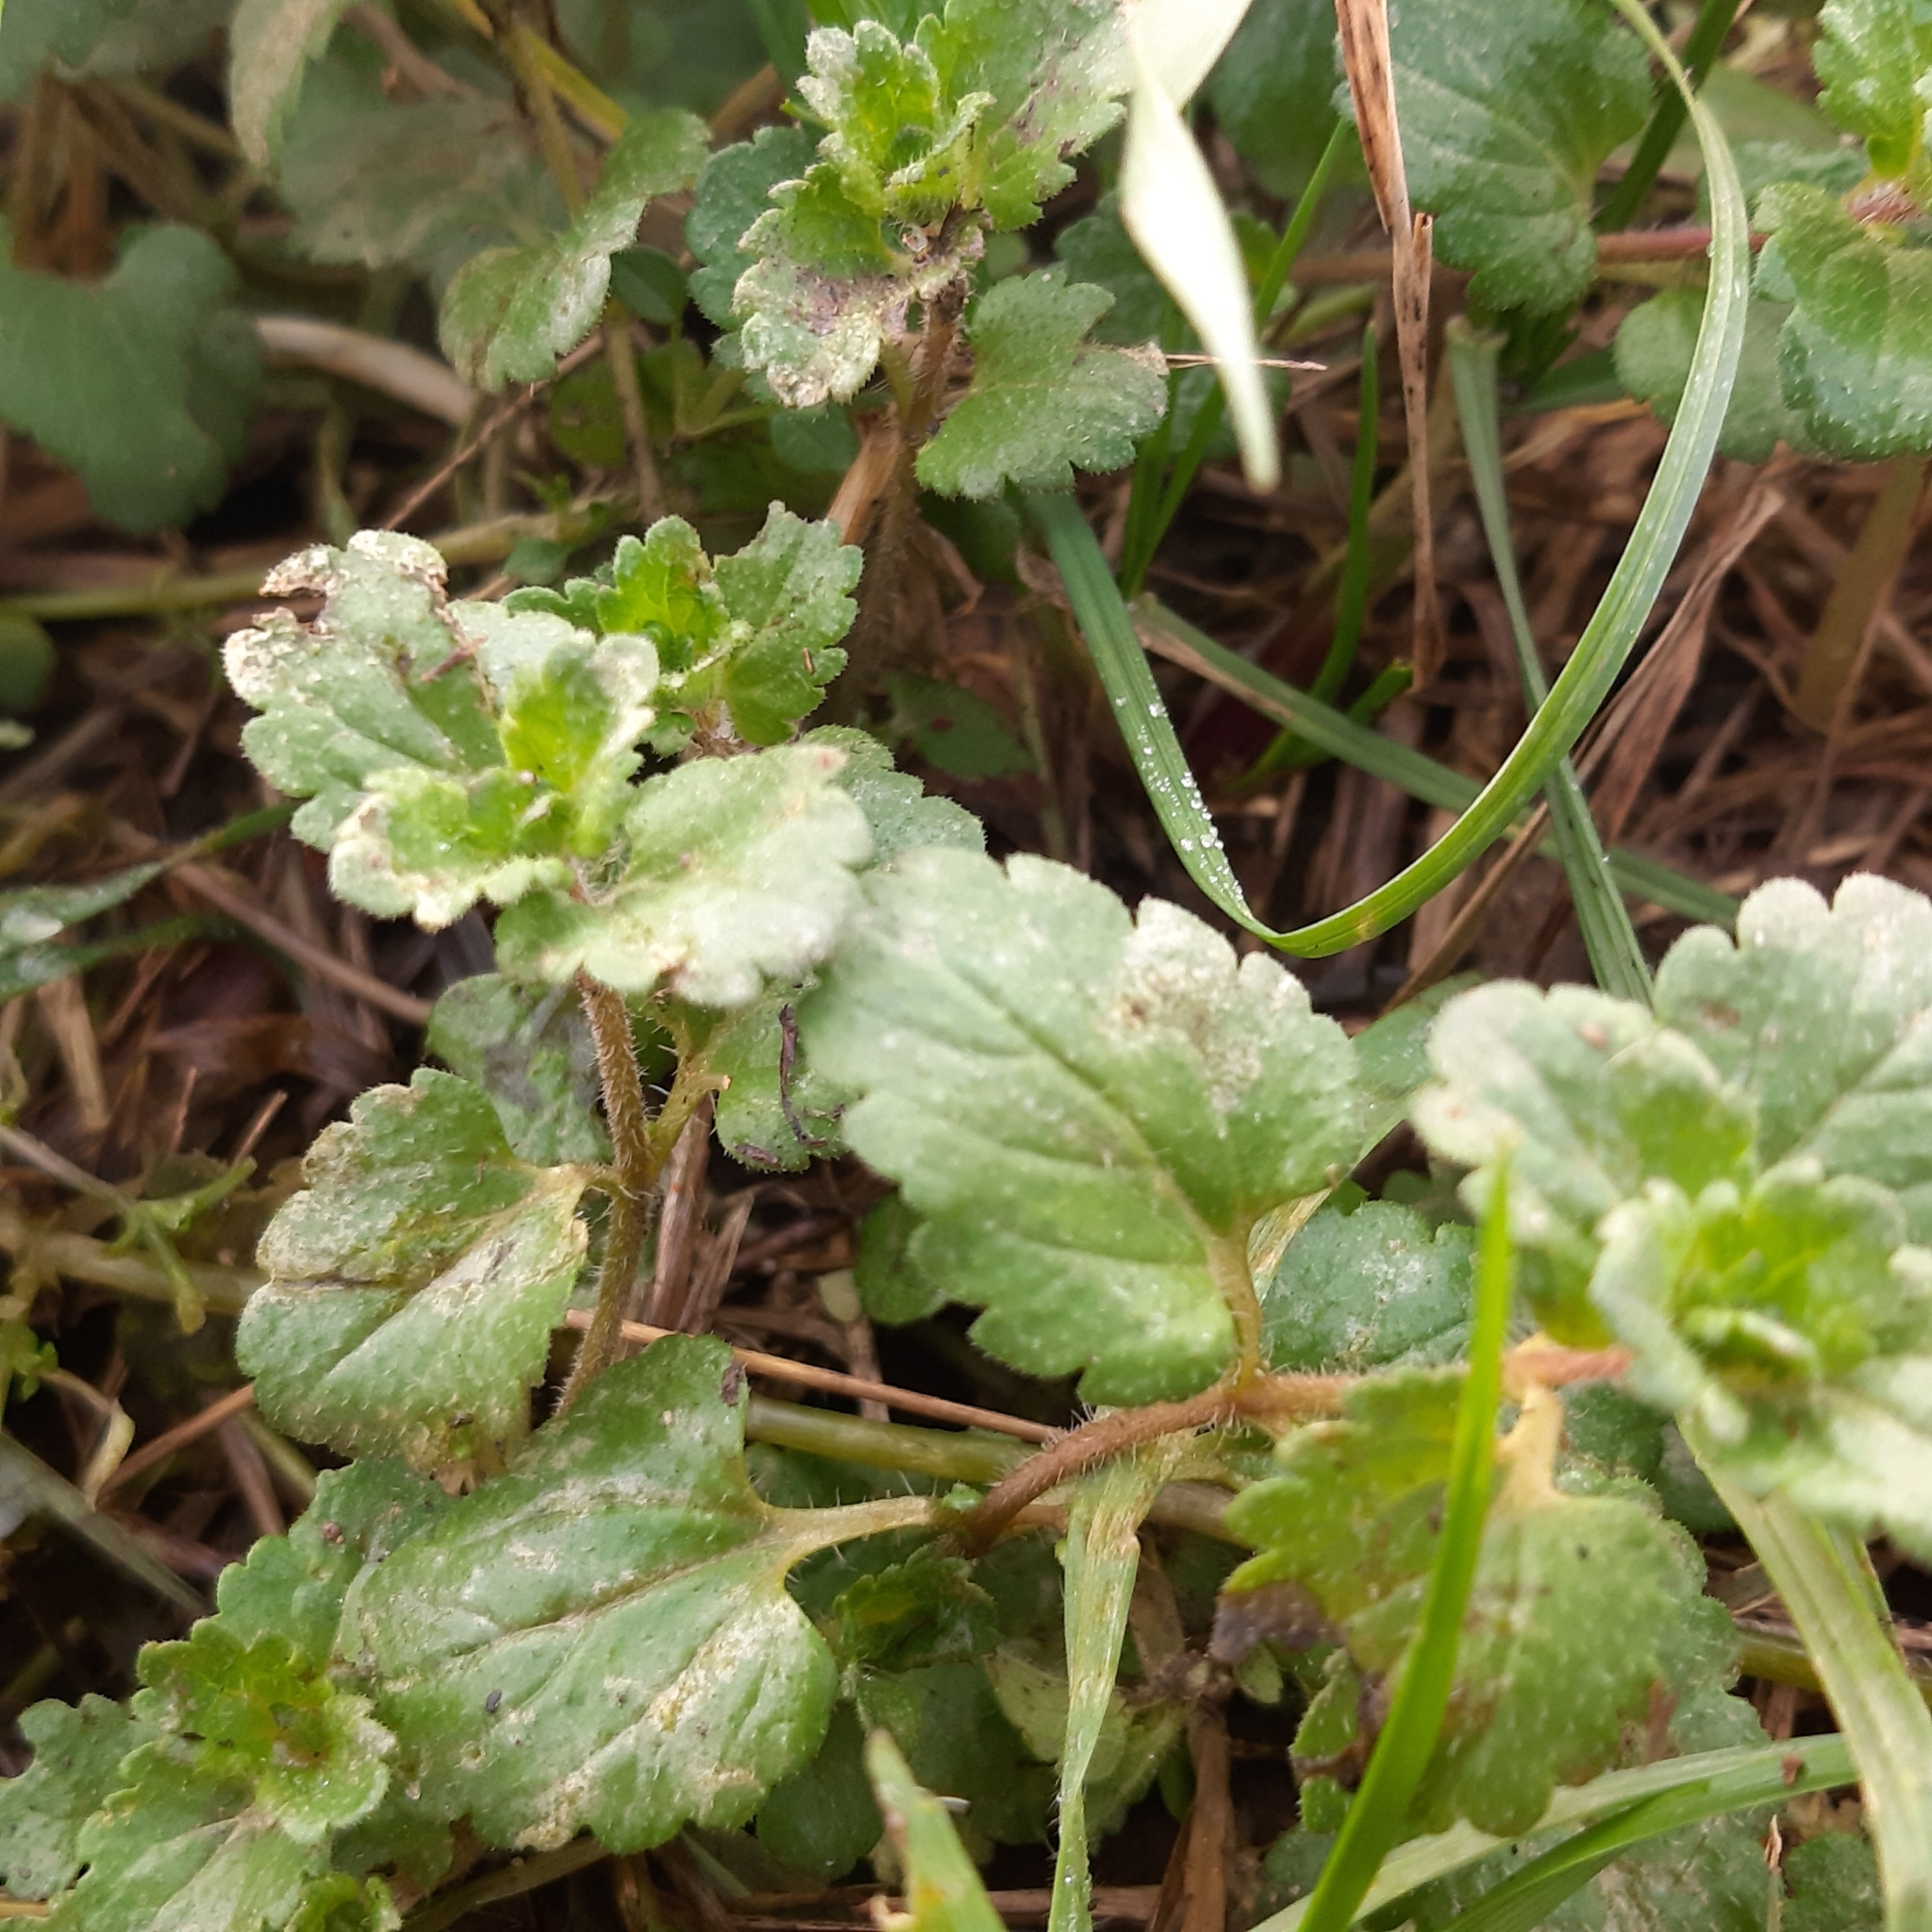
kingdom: Plantae
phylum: Tracheophyta
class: Magnoliopsida
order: Lamiales
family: Plantaginaceae
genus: Veronica
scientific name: Veronica persica
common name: Common field-speedwell
